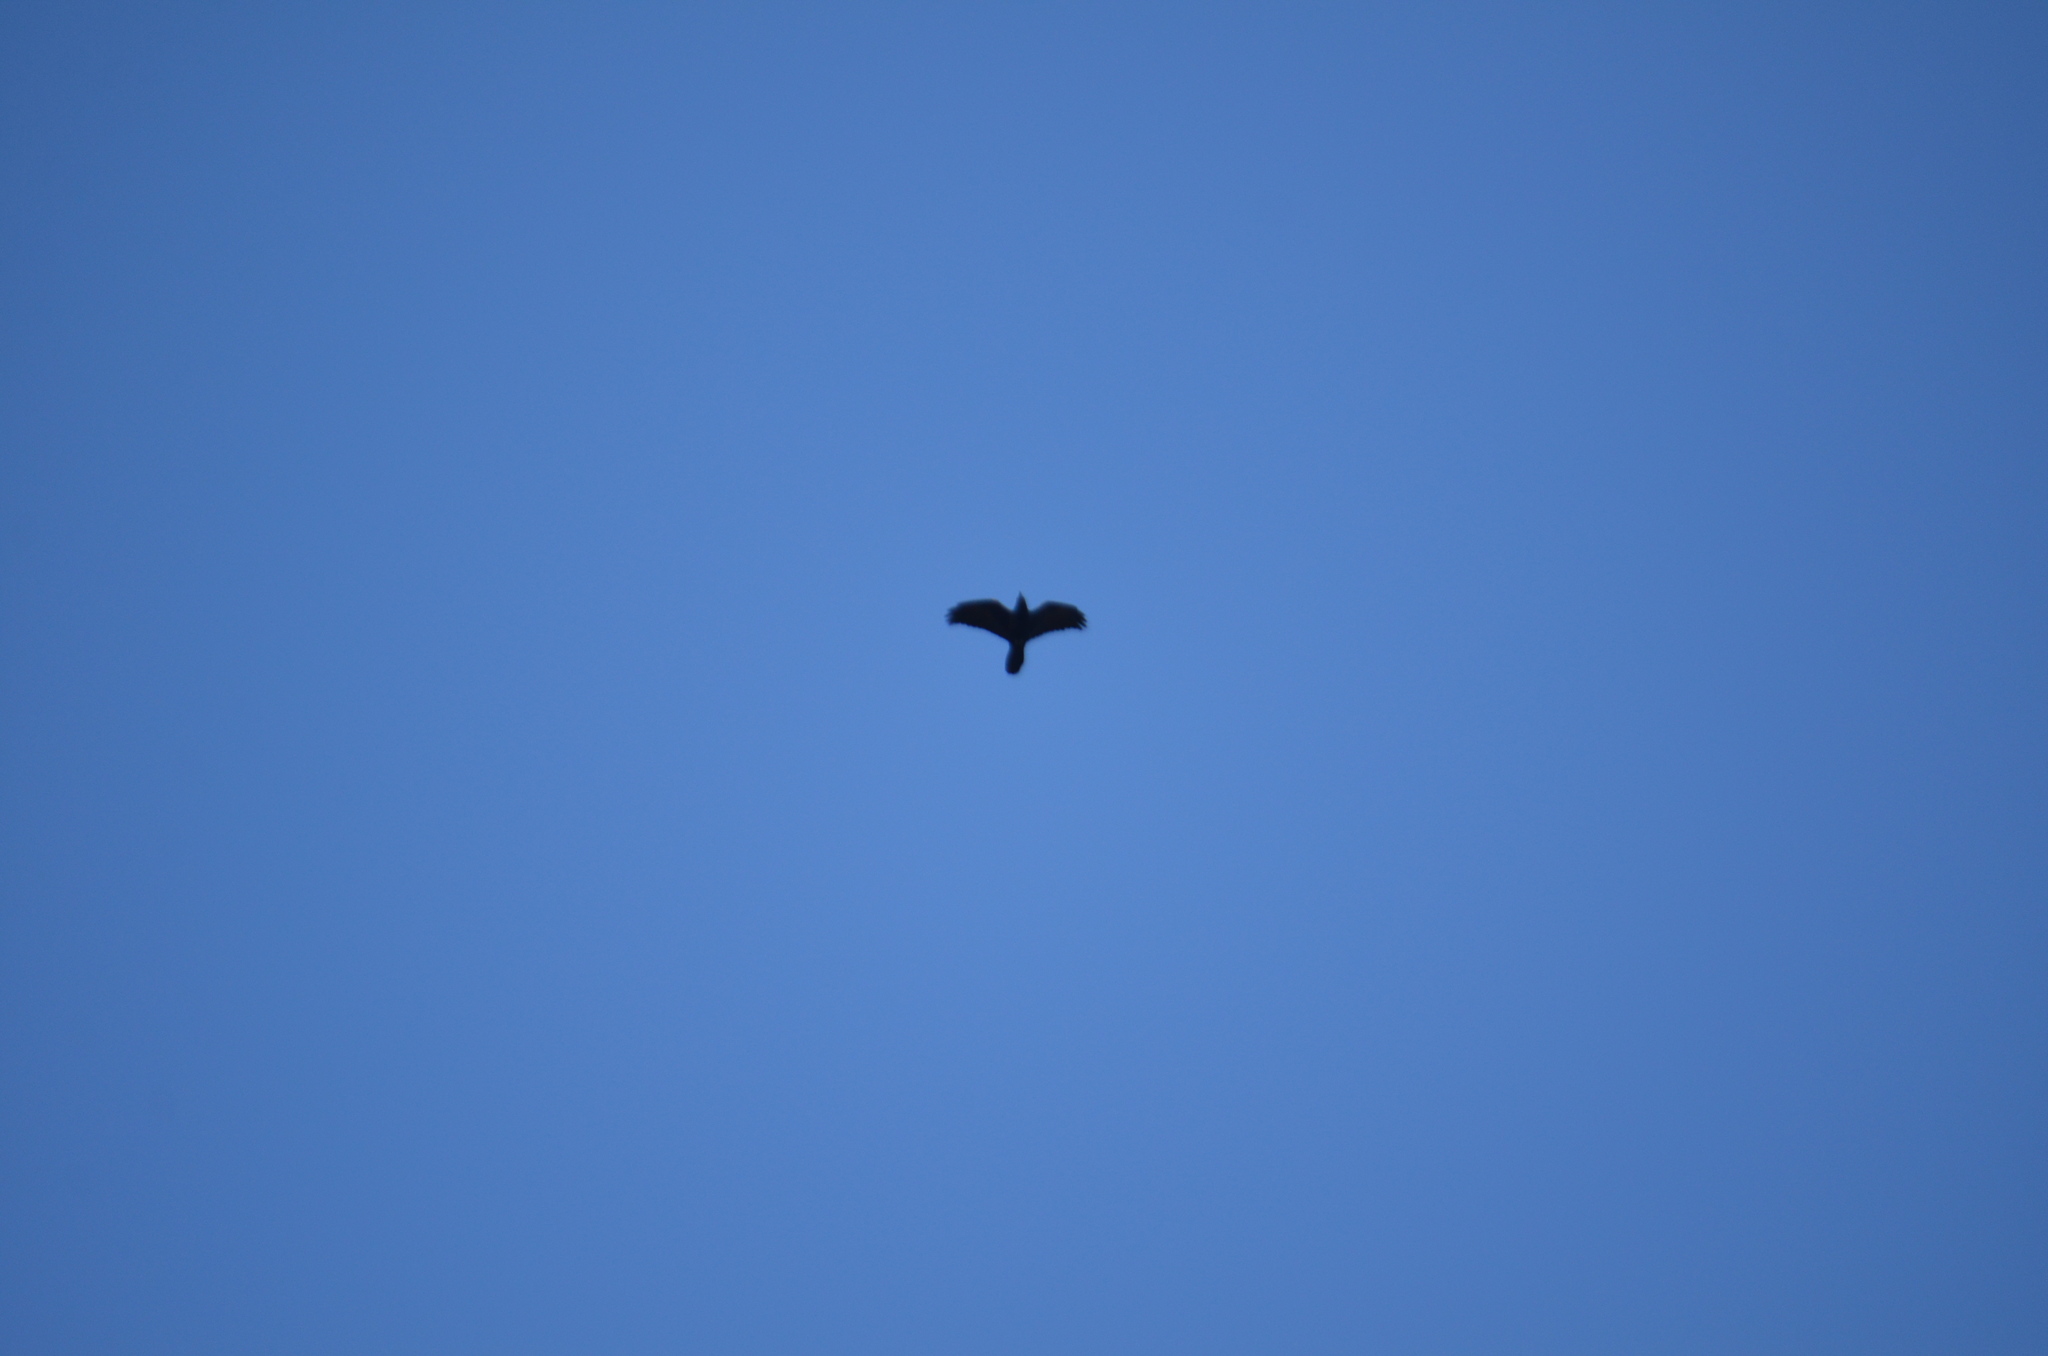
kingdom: Animalia
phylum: Chordata
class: Aves
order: Passeriformes
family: Corvidae
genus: Corvus
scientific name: Corvus brachyrhynchos
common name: American crow
